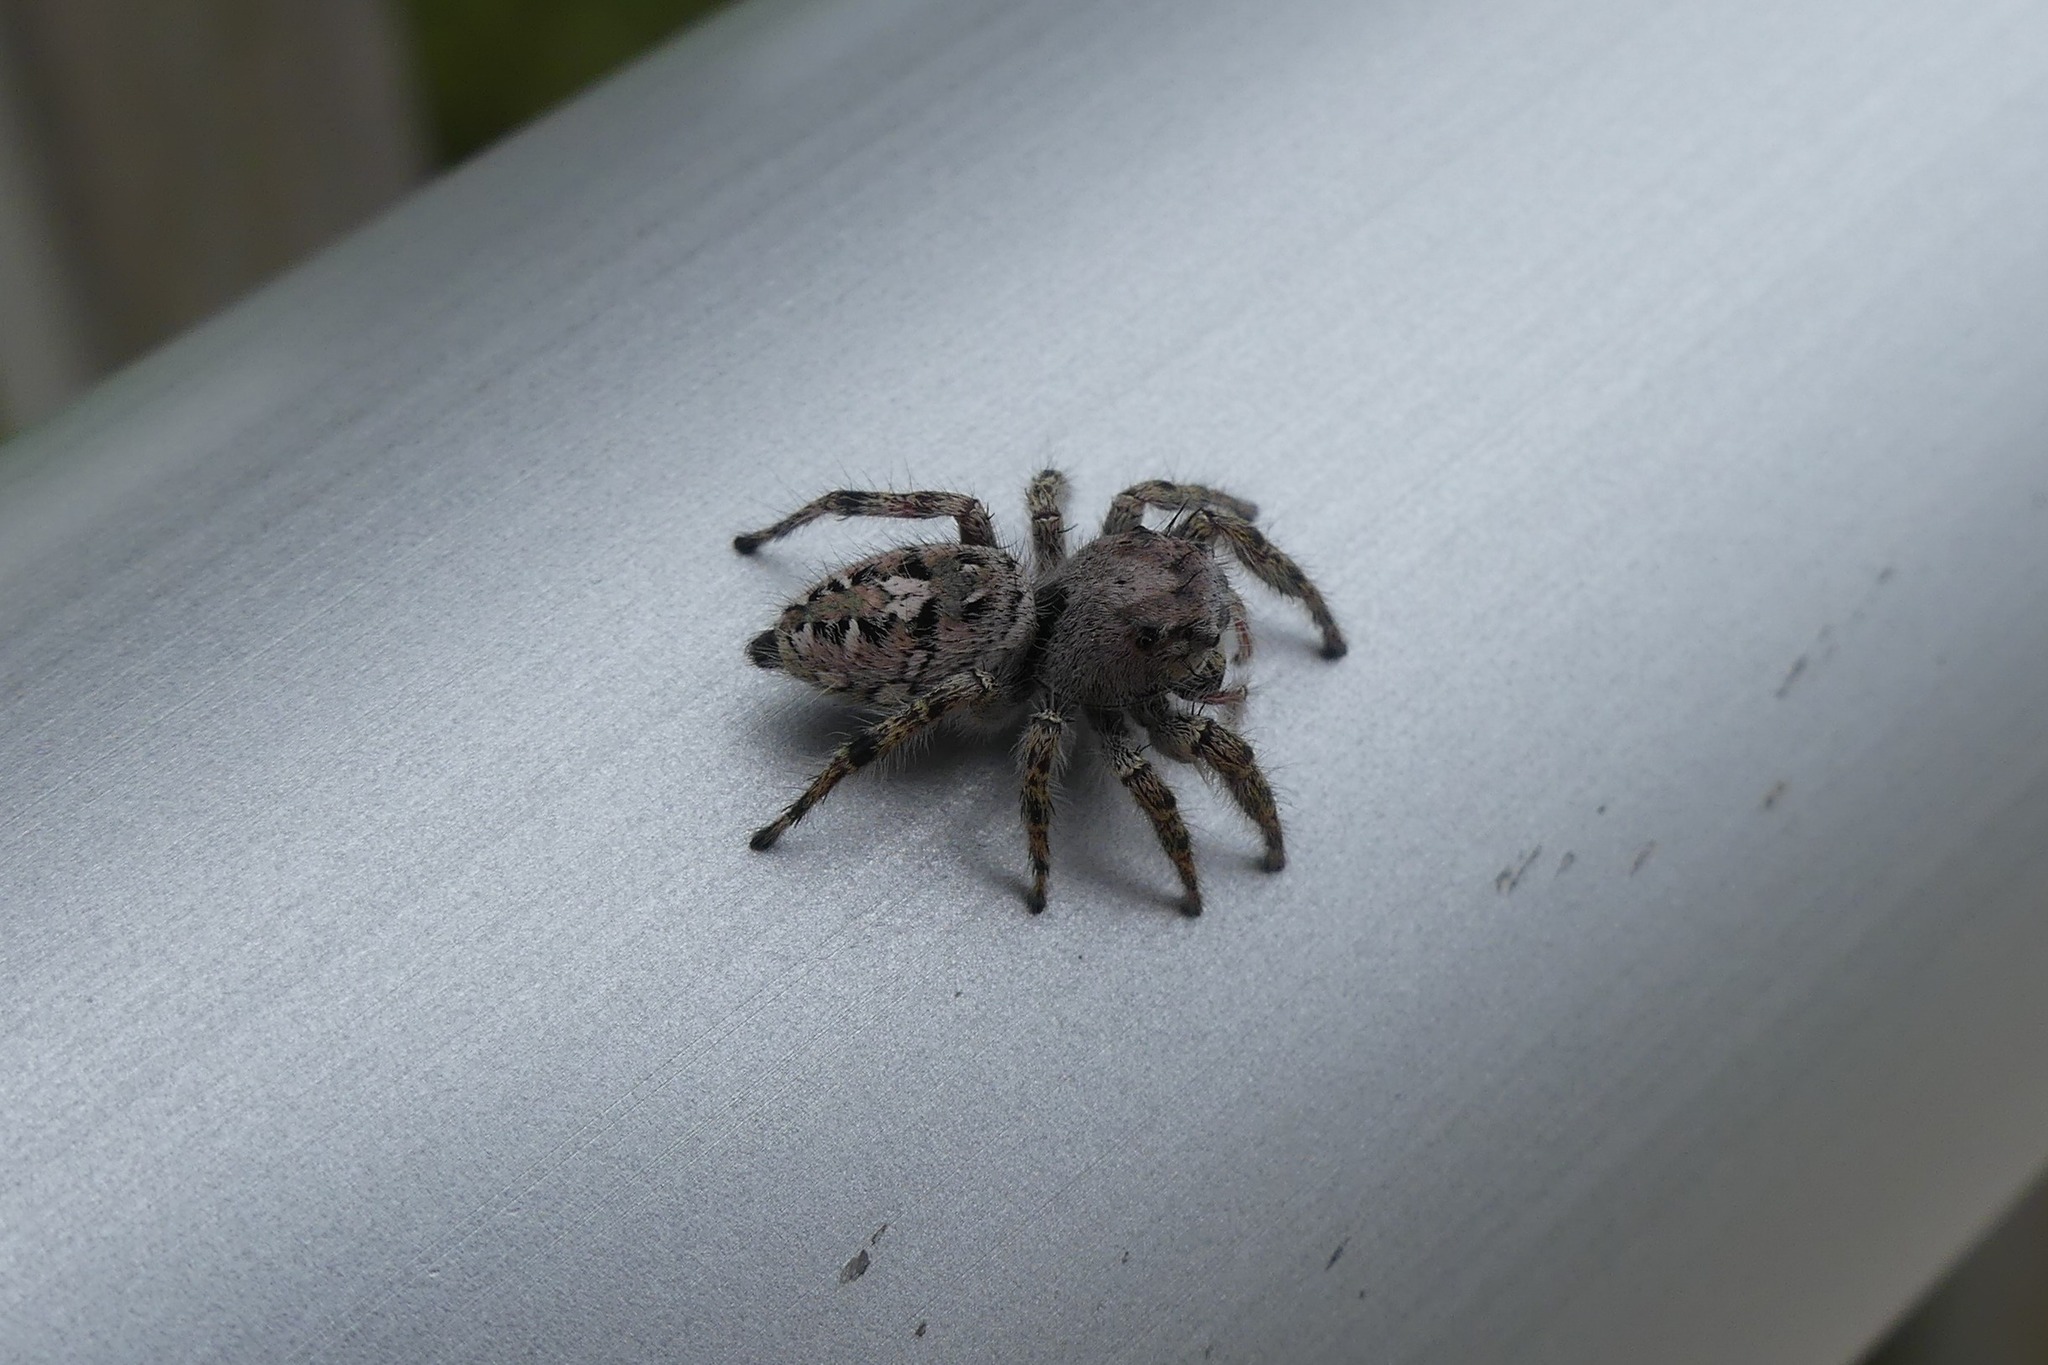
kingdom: Animalia
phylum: Arthropoda
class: Arachnida
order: Araneae
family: Salticidae
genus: Phidippus
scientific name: Phidippus putnami
